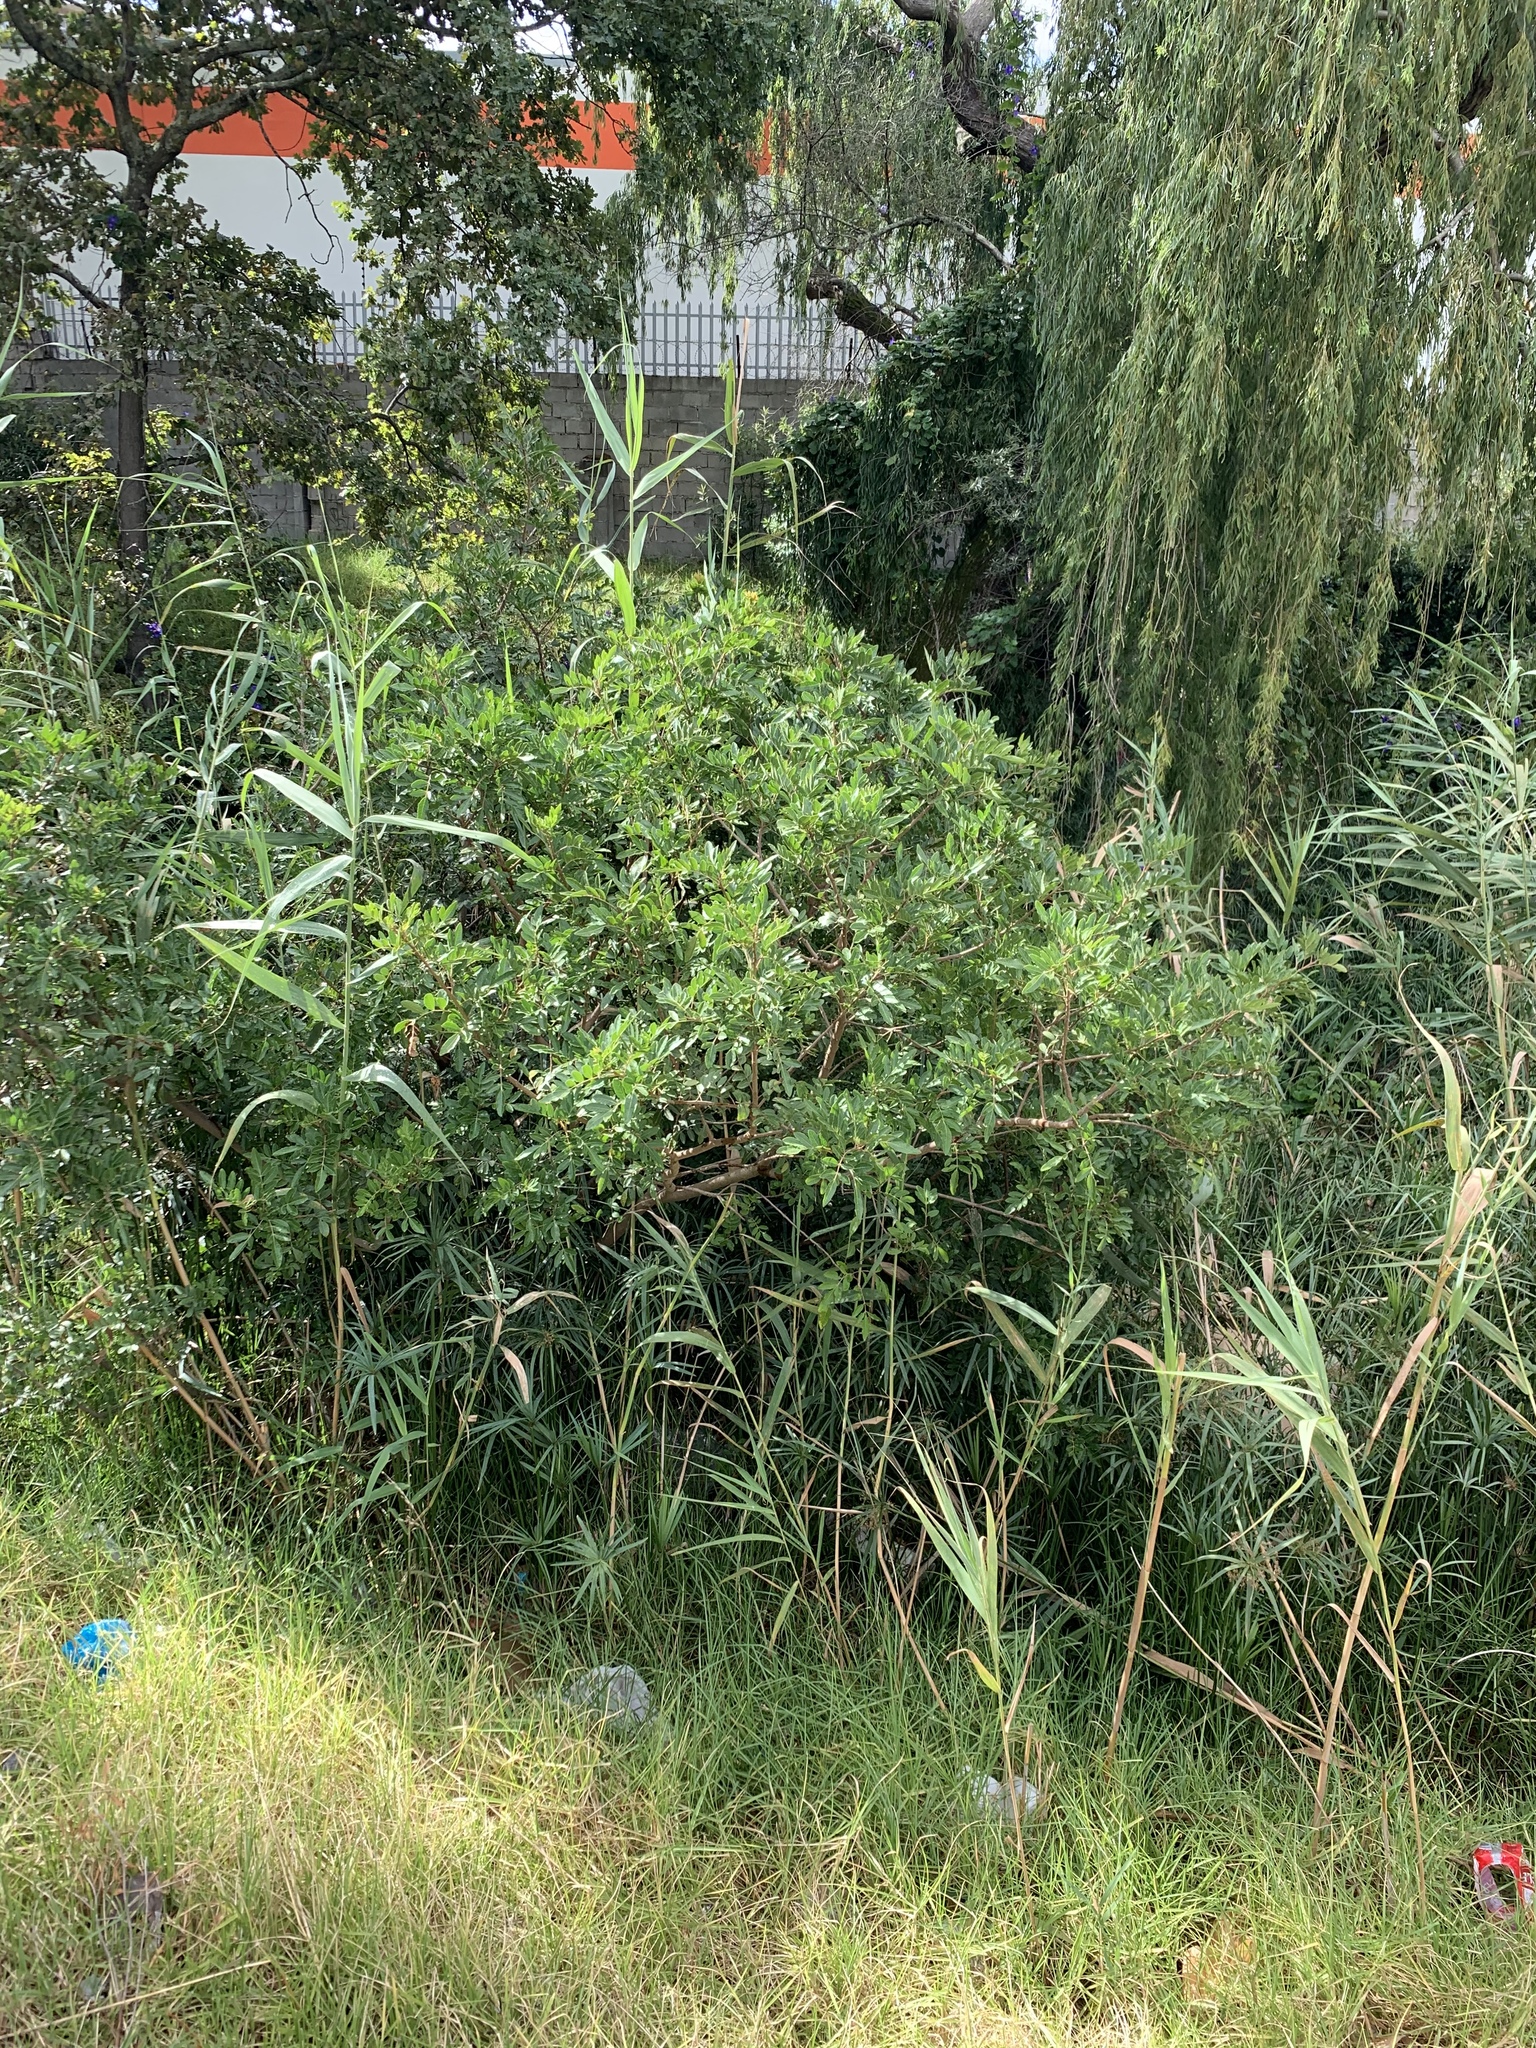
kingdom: Plantae
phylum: Tracheophyta
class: Magnoliopsida
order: Sapindales
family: Anacardiaceae
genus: Schinus
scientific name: Schinus terebinthifolia
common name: Brazilian peppertree
